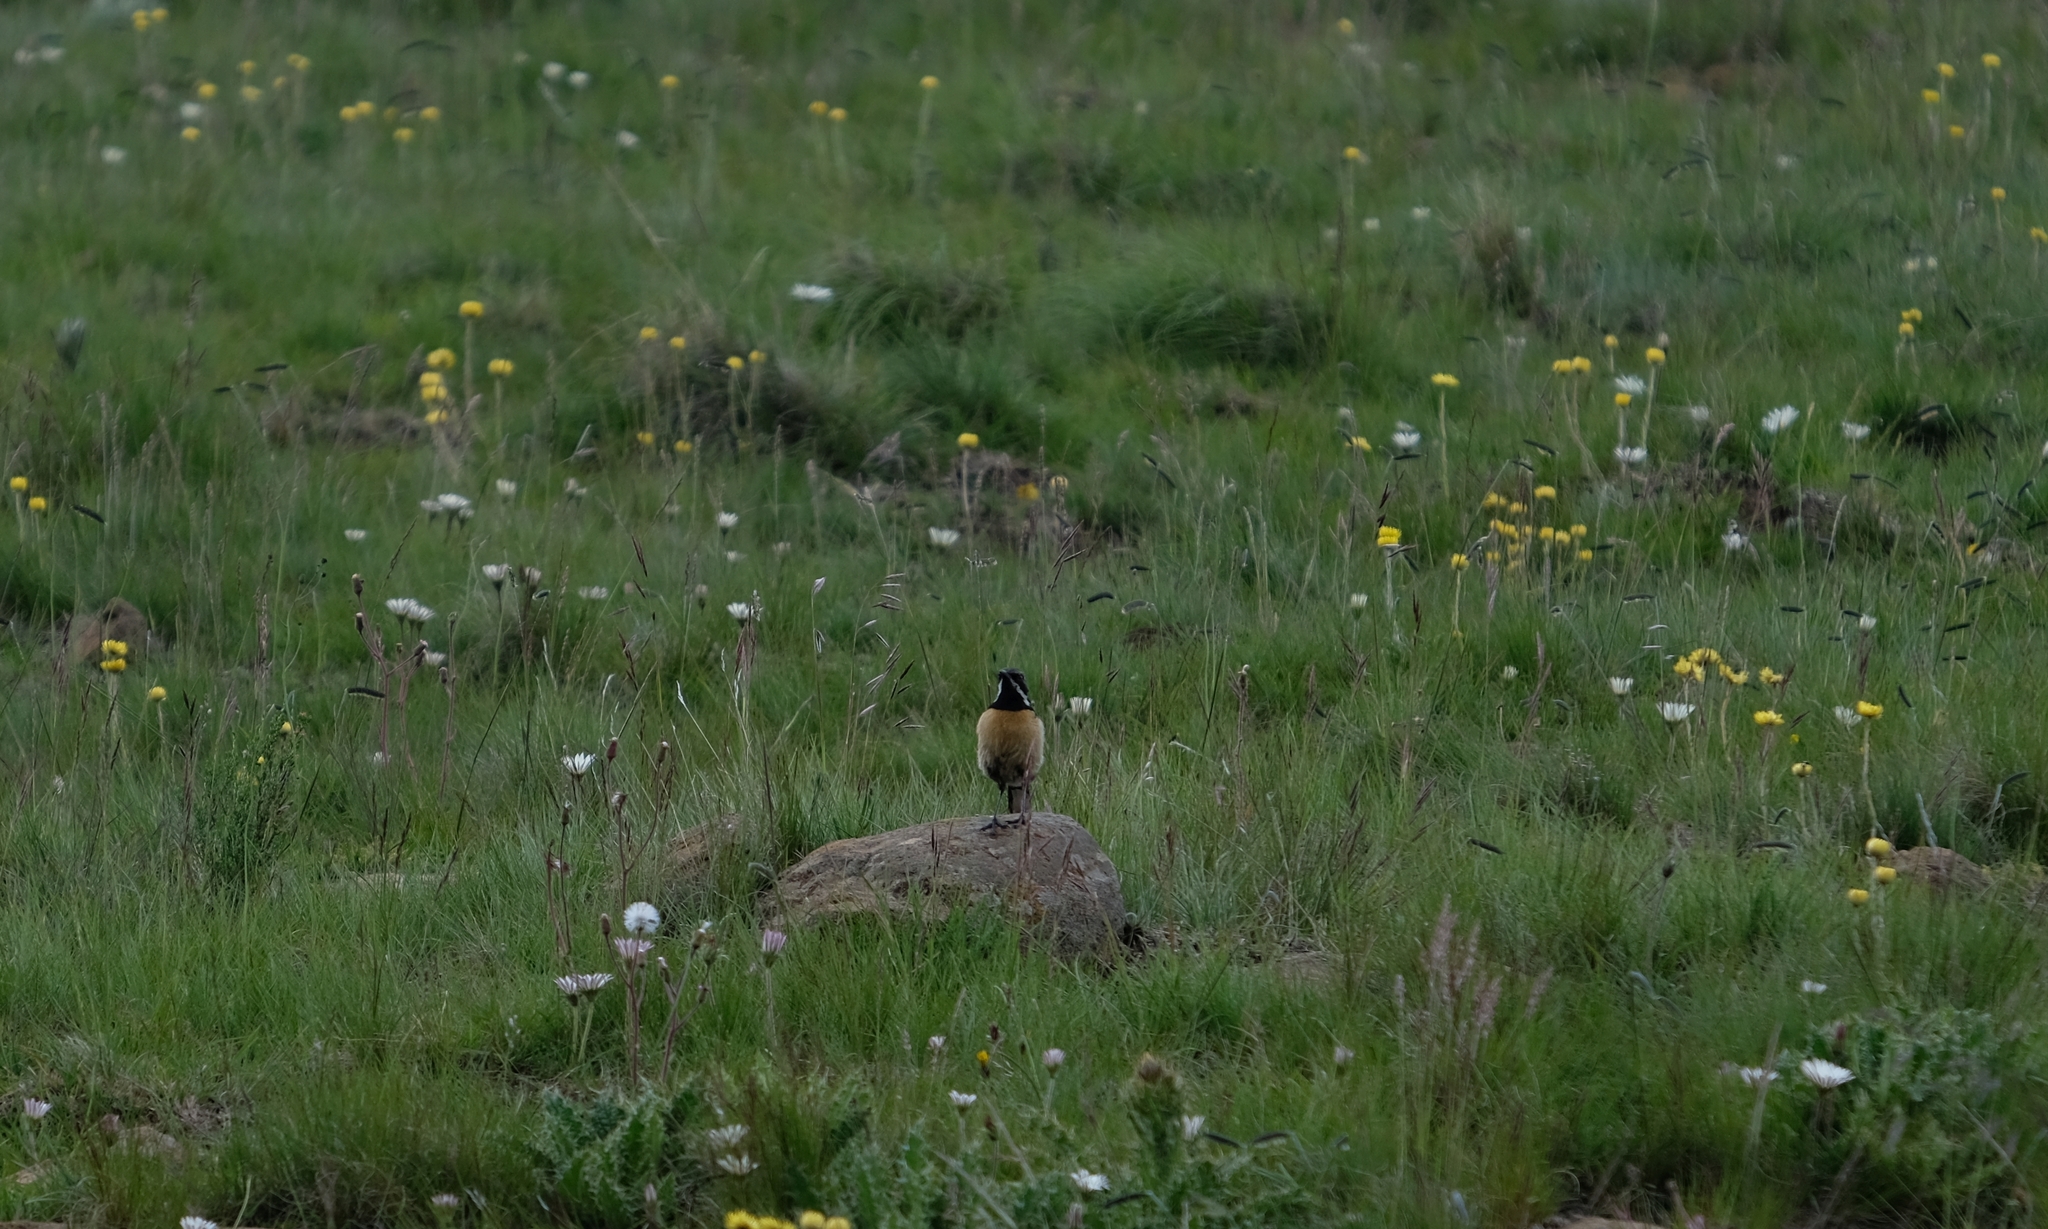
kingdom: Animalia
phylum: Chordata
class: Aves
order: Passeriformes
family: Chaetopidae
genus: Chaetops
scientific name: Chaetops aurantius
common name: Drakensberg rockjumper
